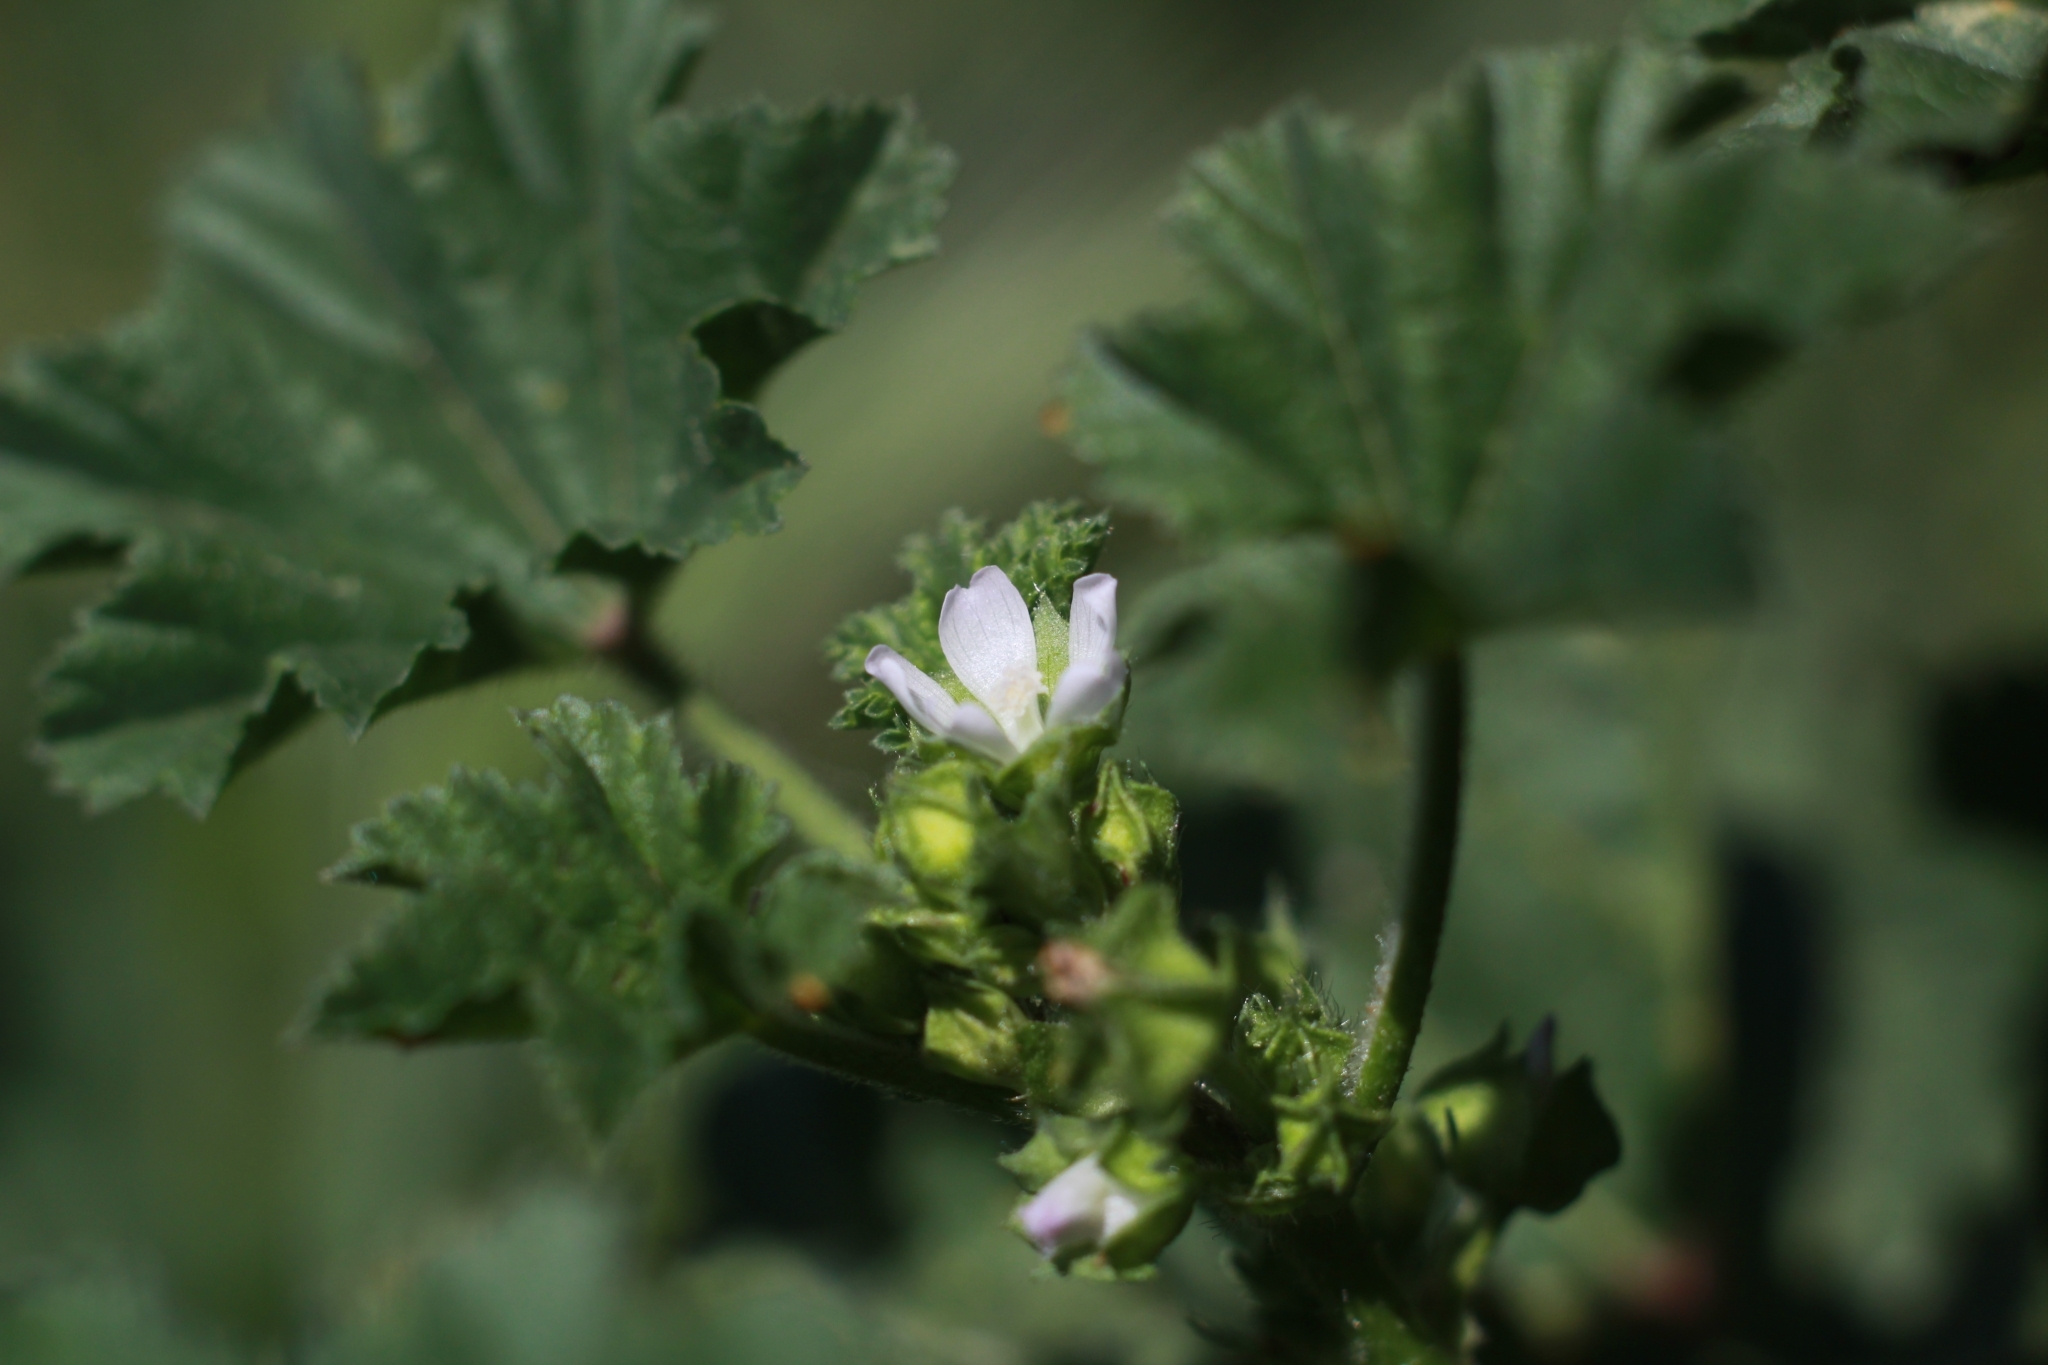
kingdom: Plantae
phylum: Tracheophyta
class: Magnoliopsida
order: Malvales
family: Malvaceae
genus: Malva
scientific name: Malva parviflora
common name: Least mallow
